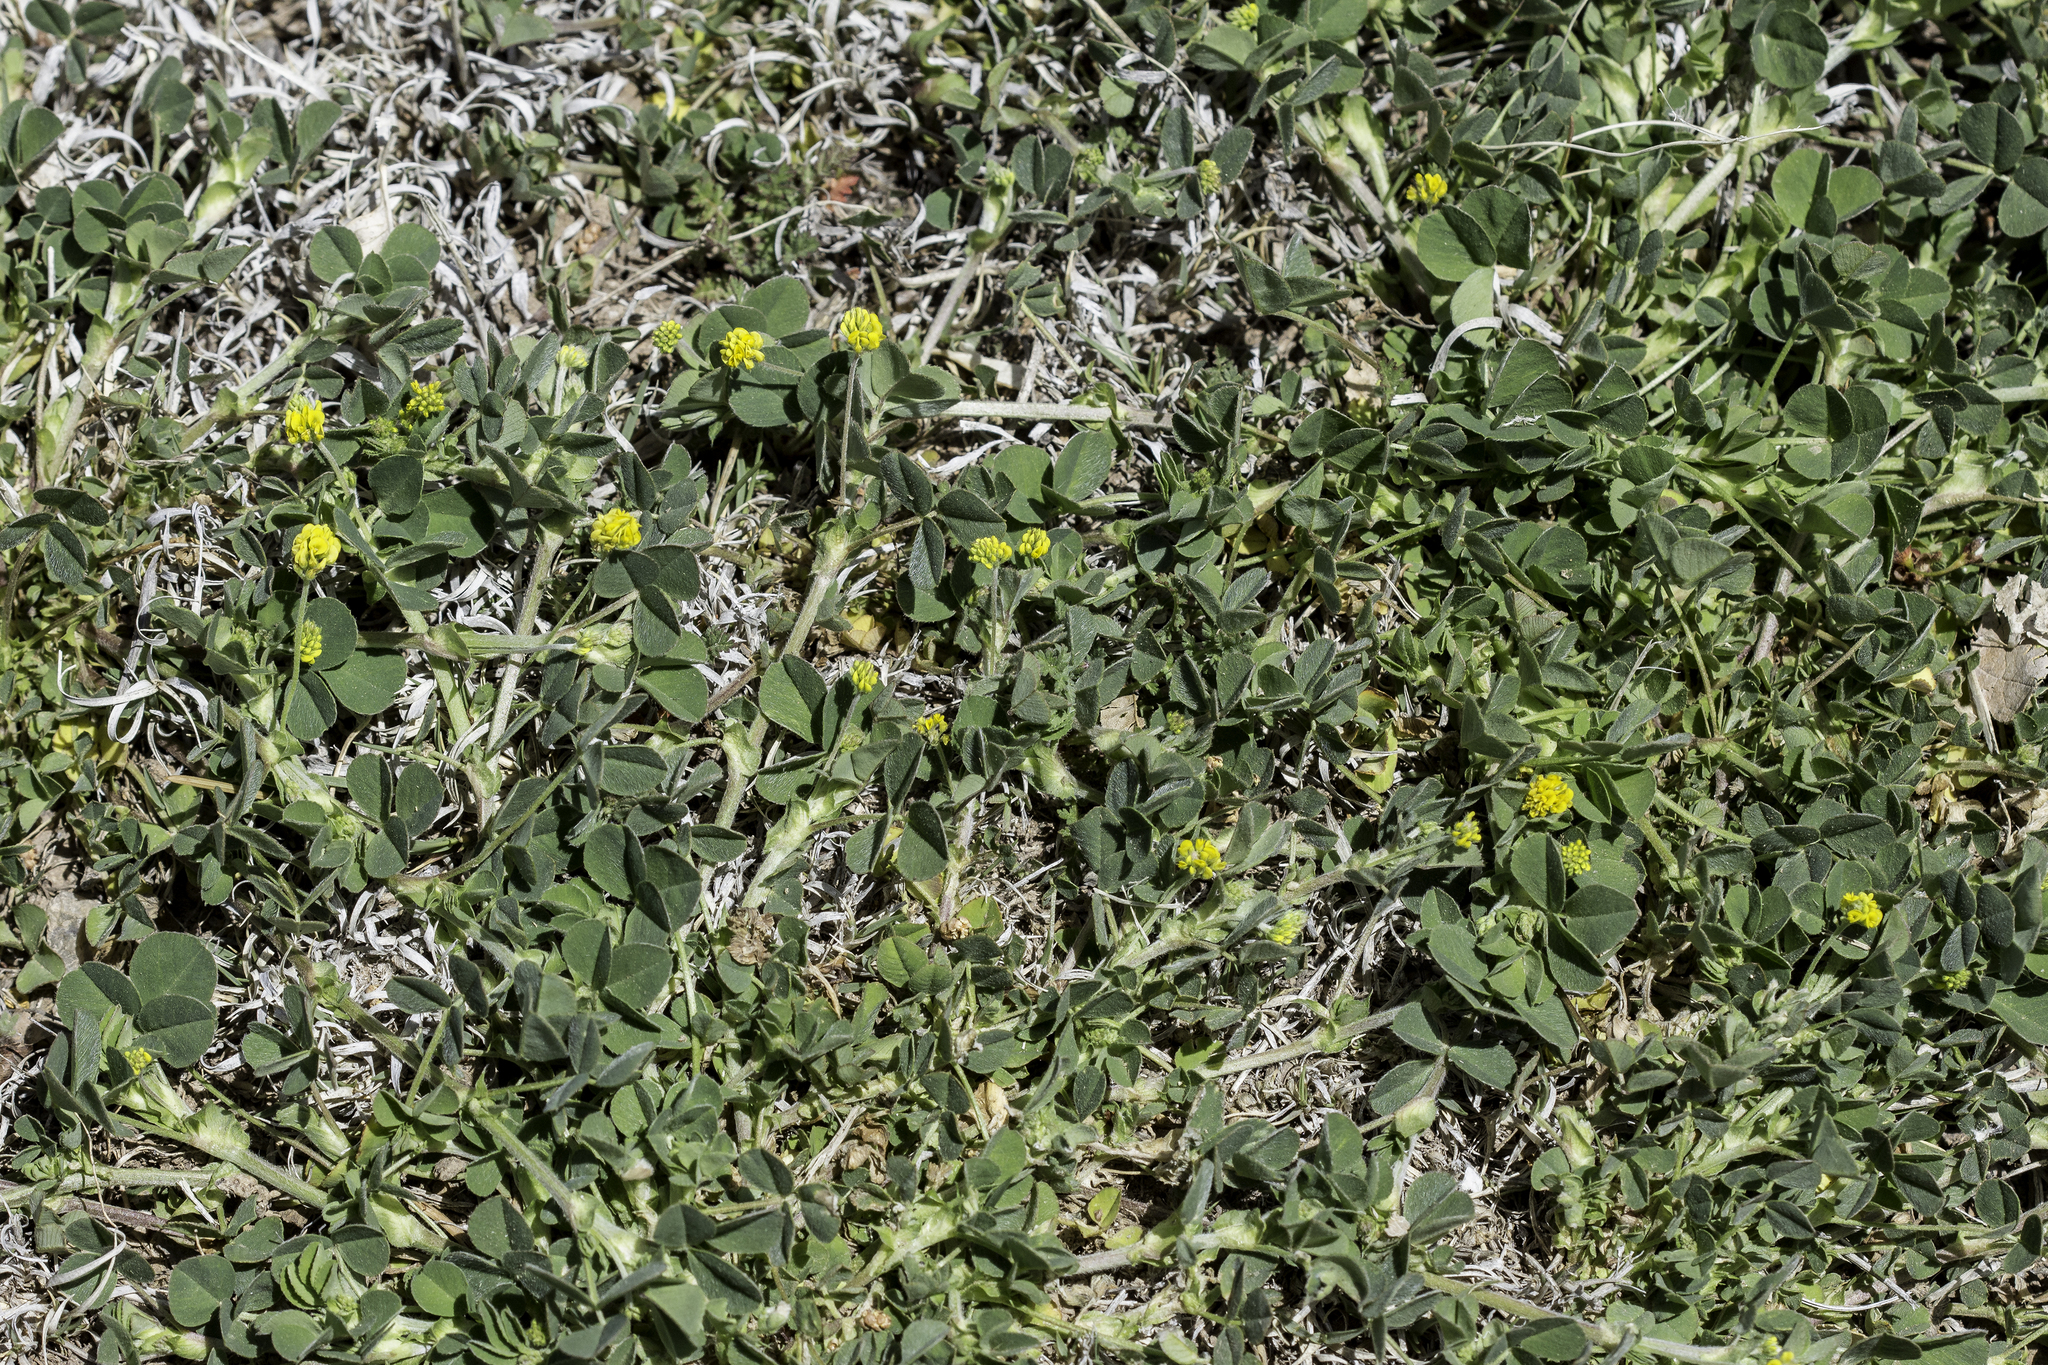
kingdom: Plantae
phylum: Tracheophyta
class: Magnoliopsida
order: Fabales
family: Fabaceae
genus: Medicago
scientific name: Medicago lupulina
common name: Black medick
